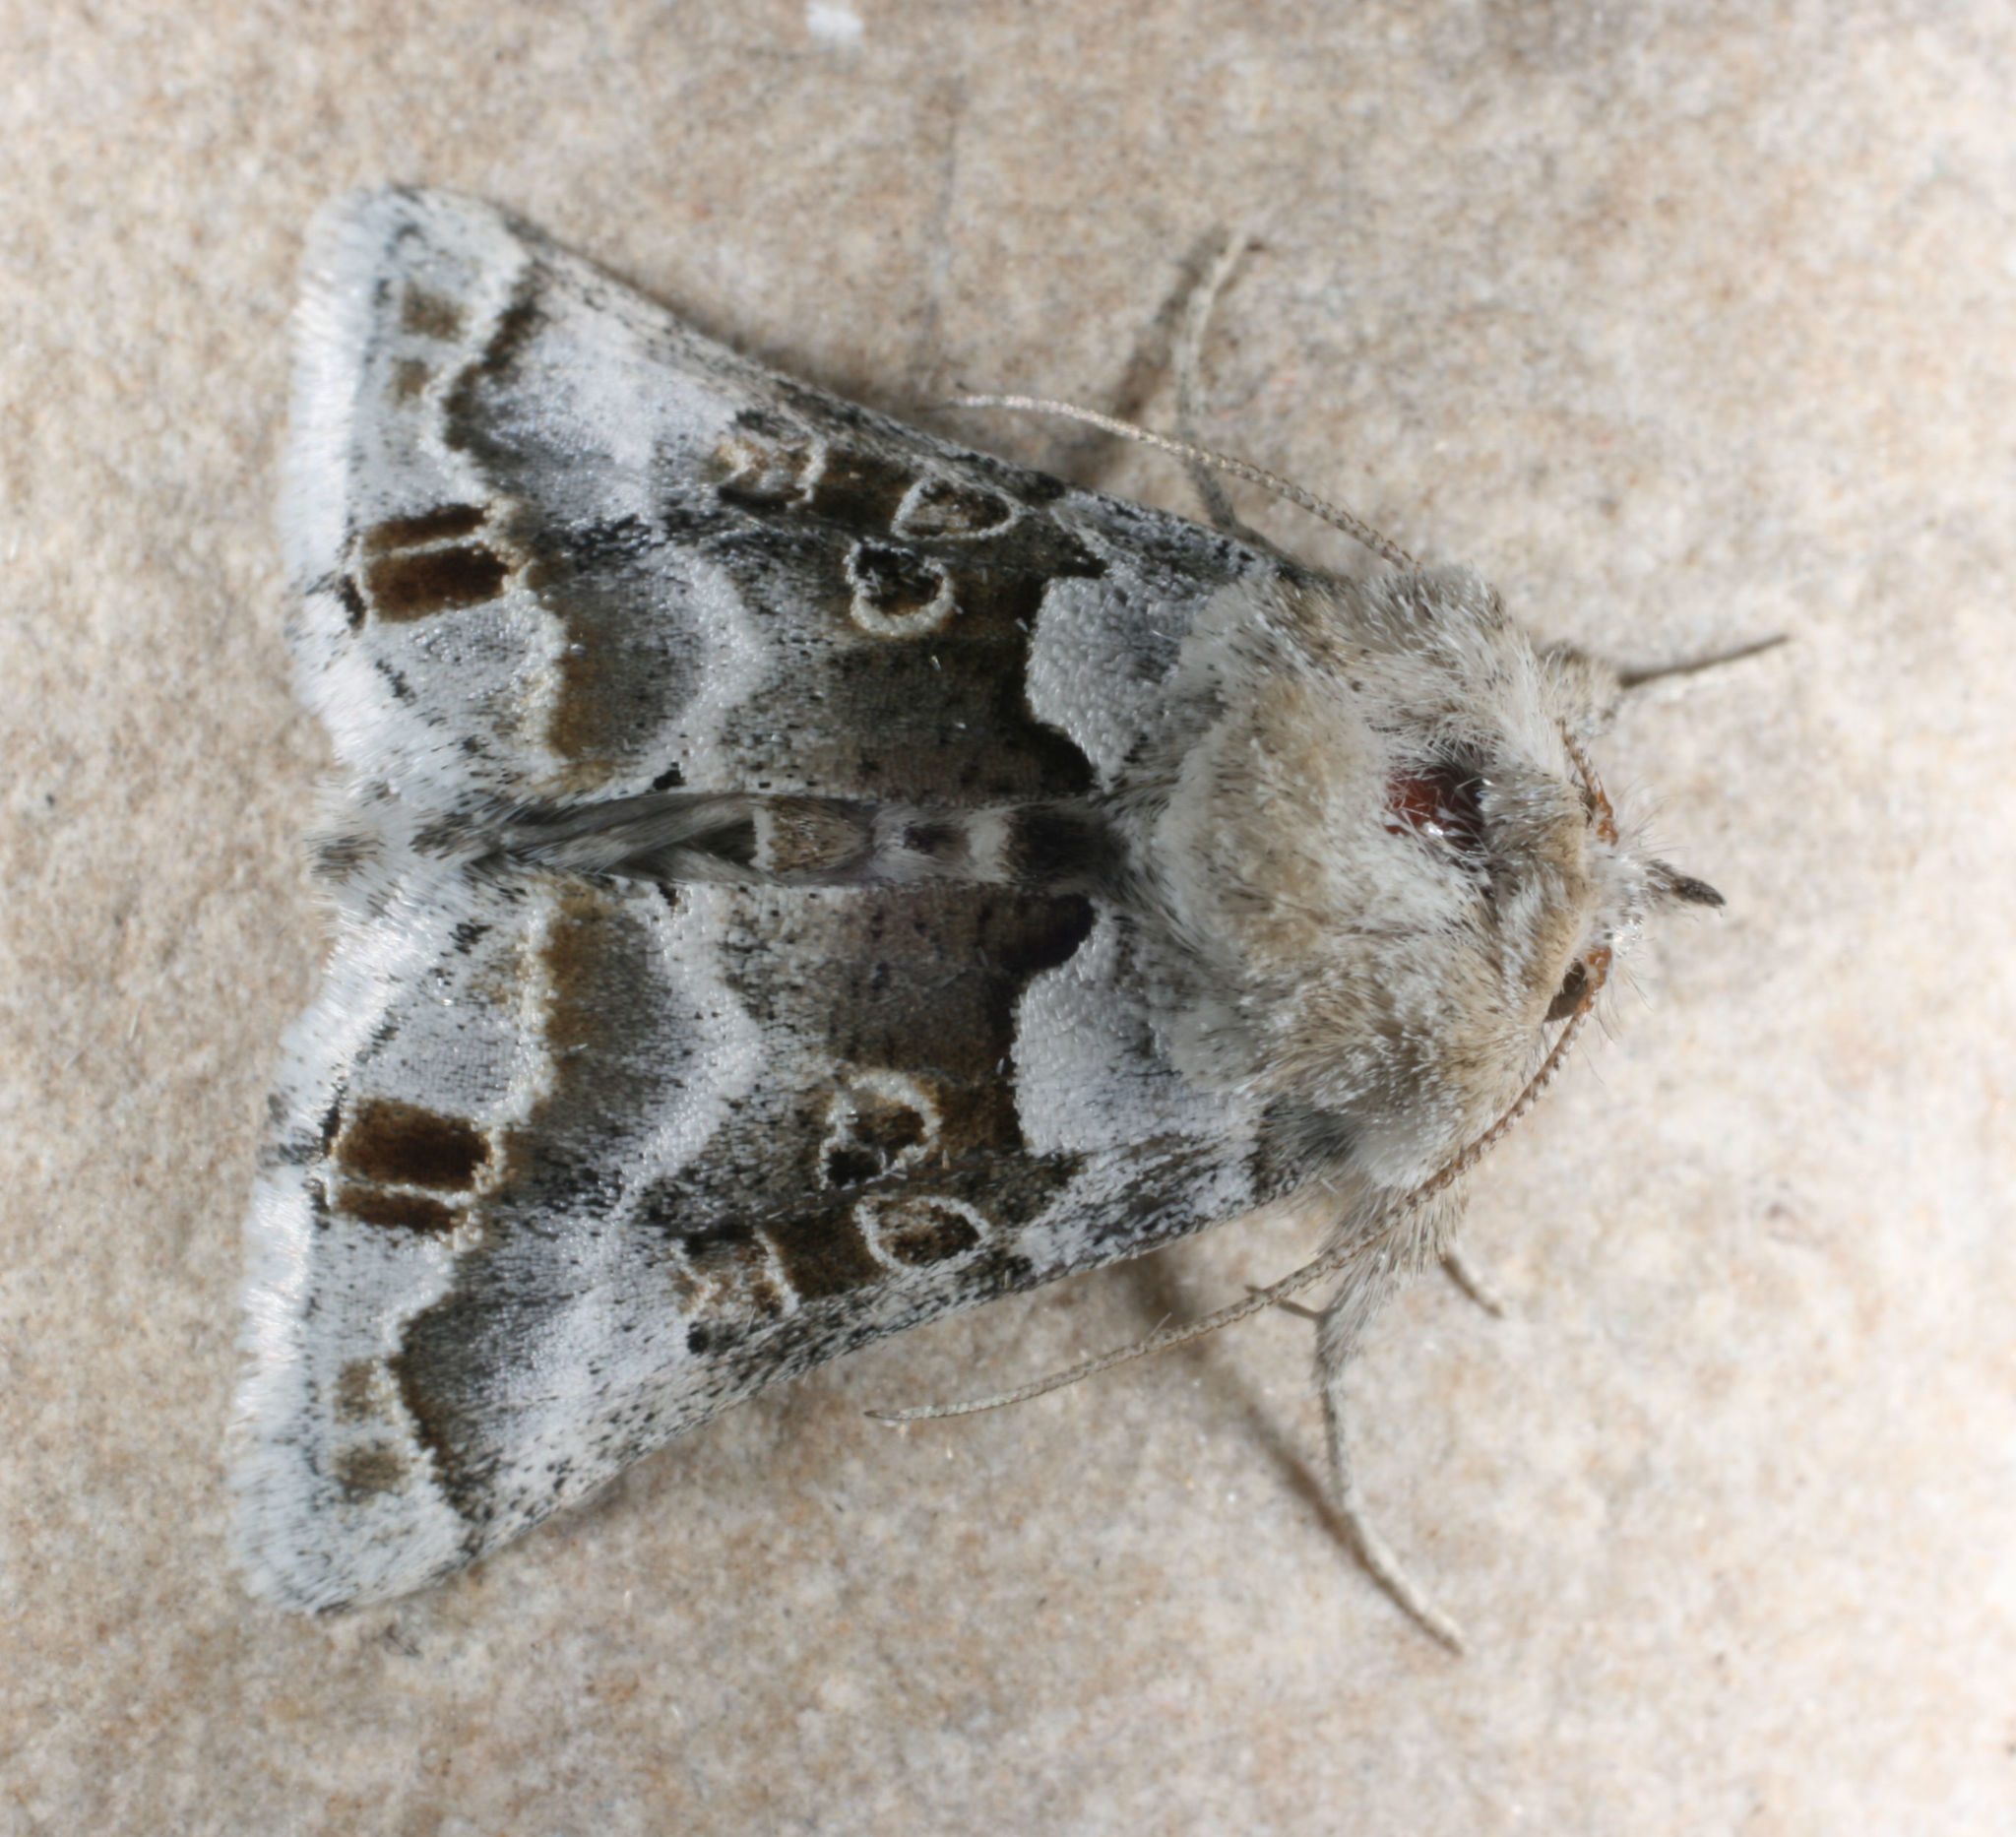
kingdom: Animalia
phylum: Arthropoda
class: Insecta
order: Lepidoptera
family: Noctuidae
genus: Euchalcia
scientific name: Euchalcia albavitta
